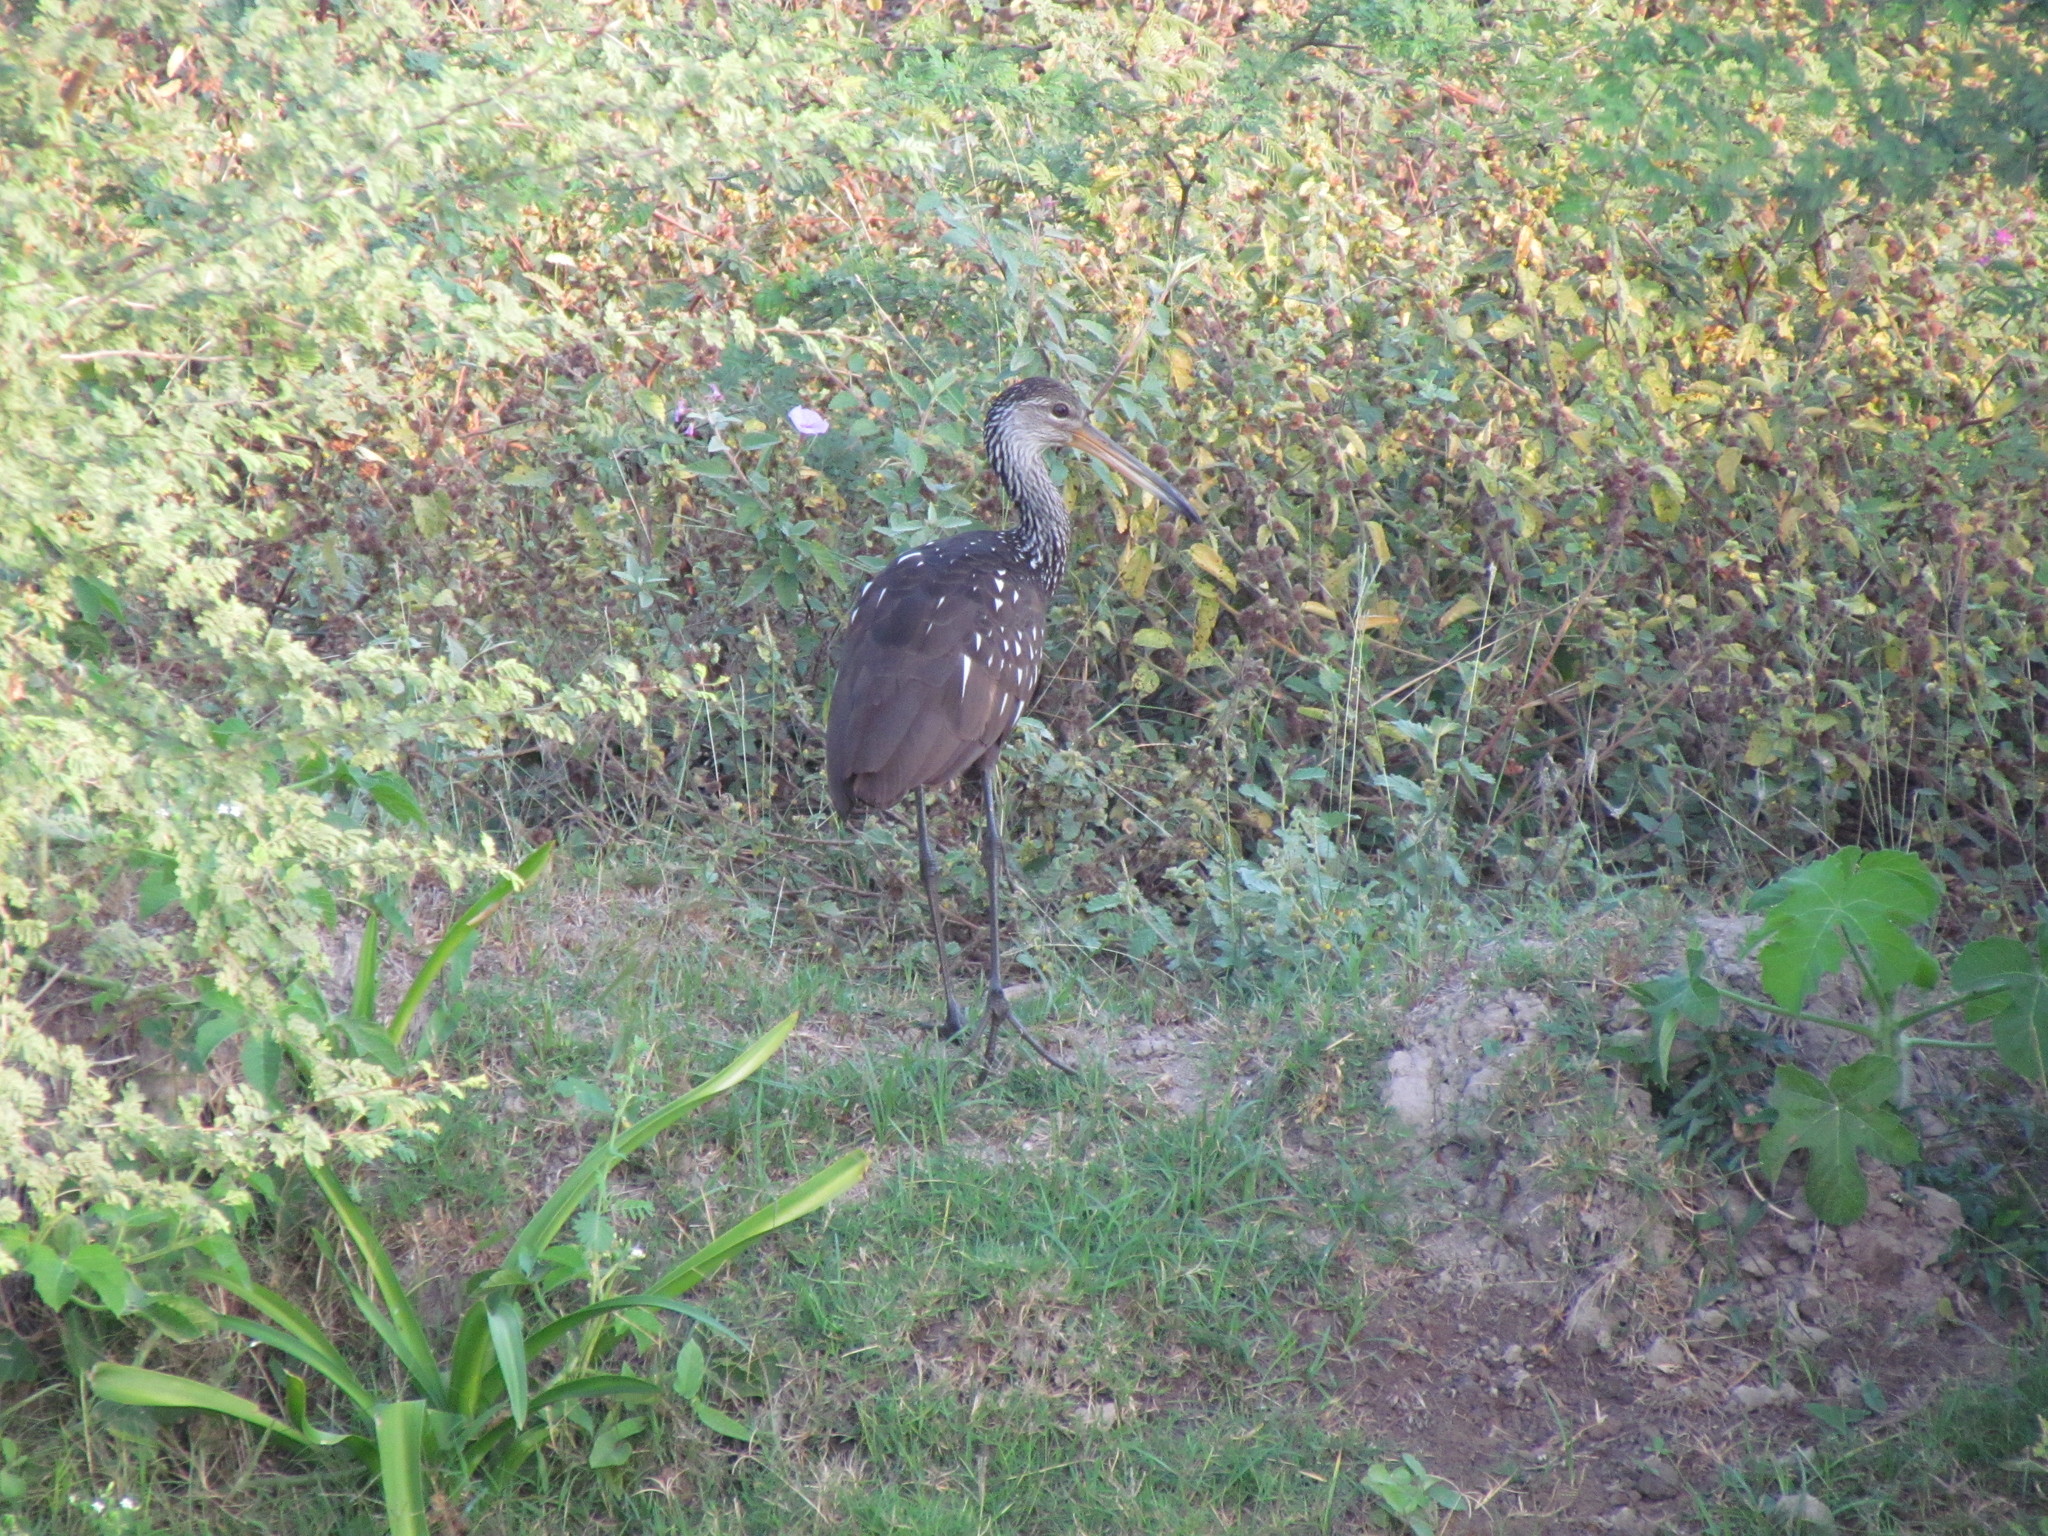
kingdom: Animalia
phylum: Chordata
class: Aves
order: Gruiformes
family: Aramidae
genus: Aramus
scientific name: Aramus guarauna
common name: Limpkin
